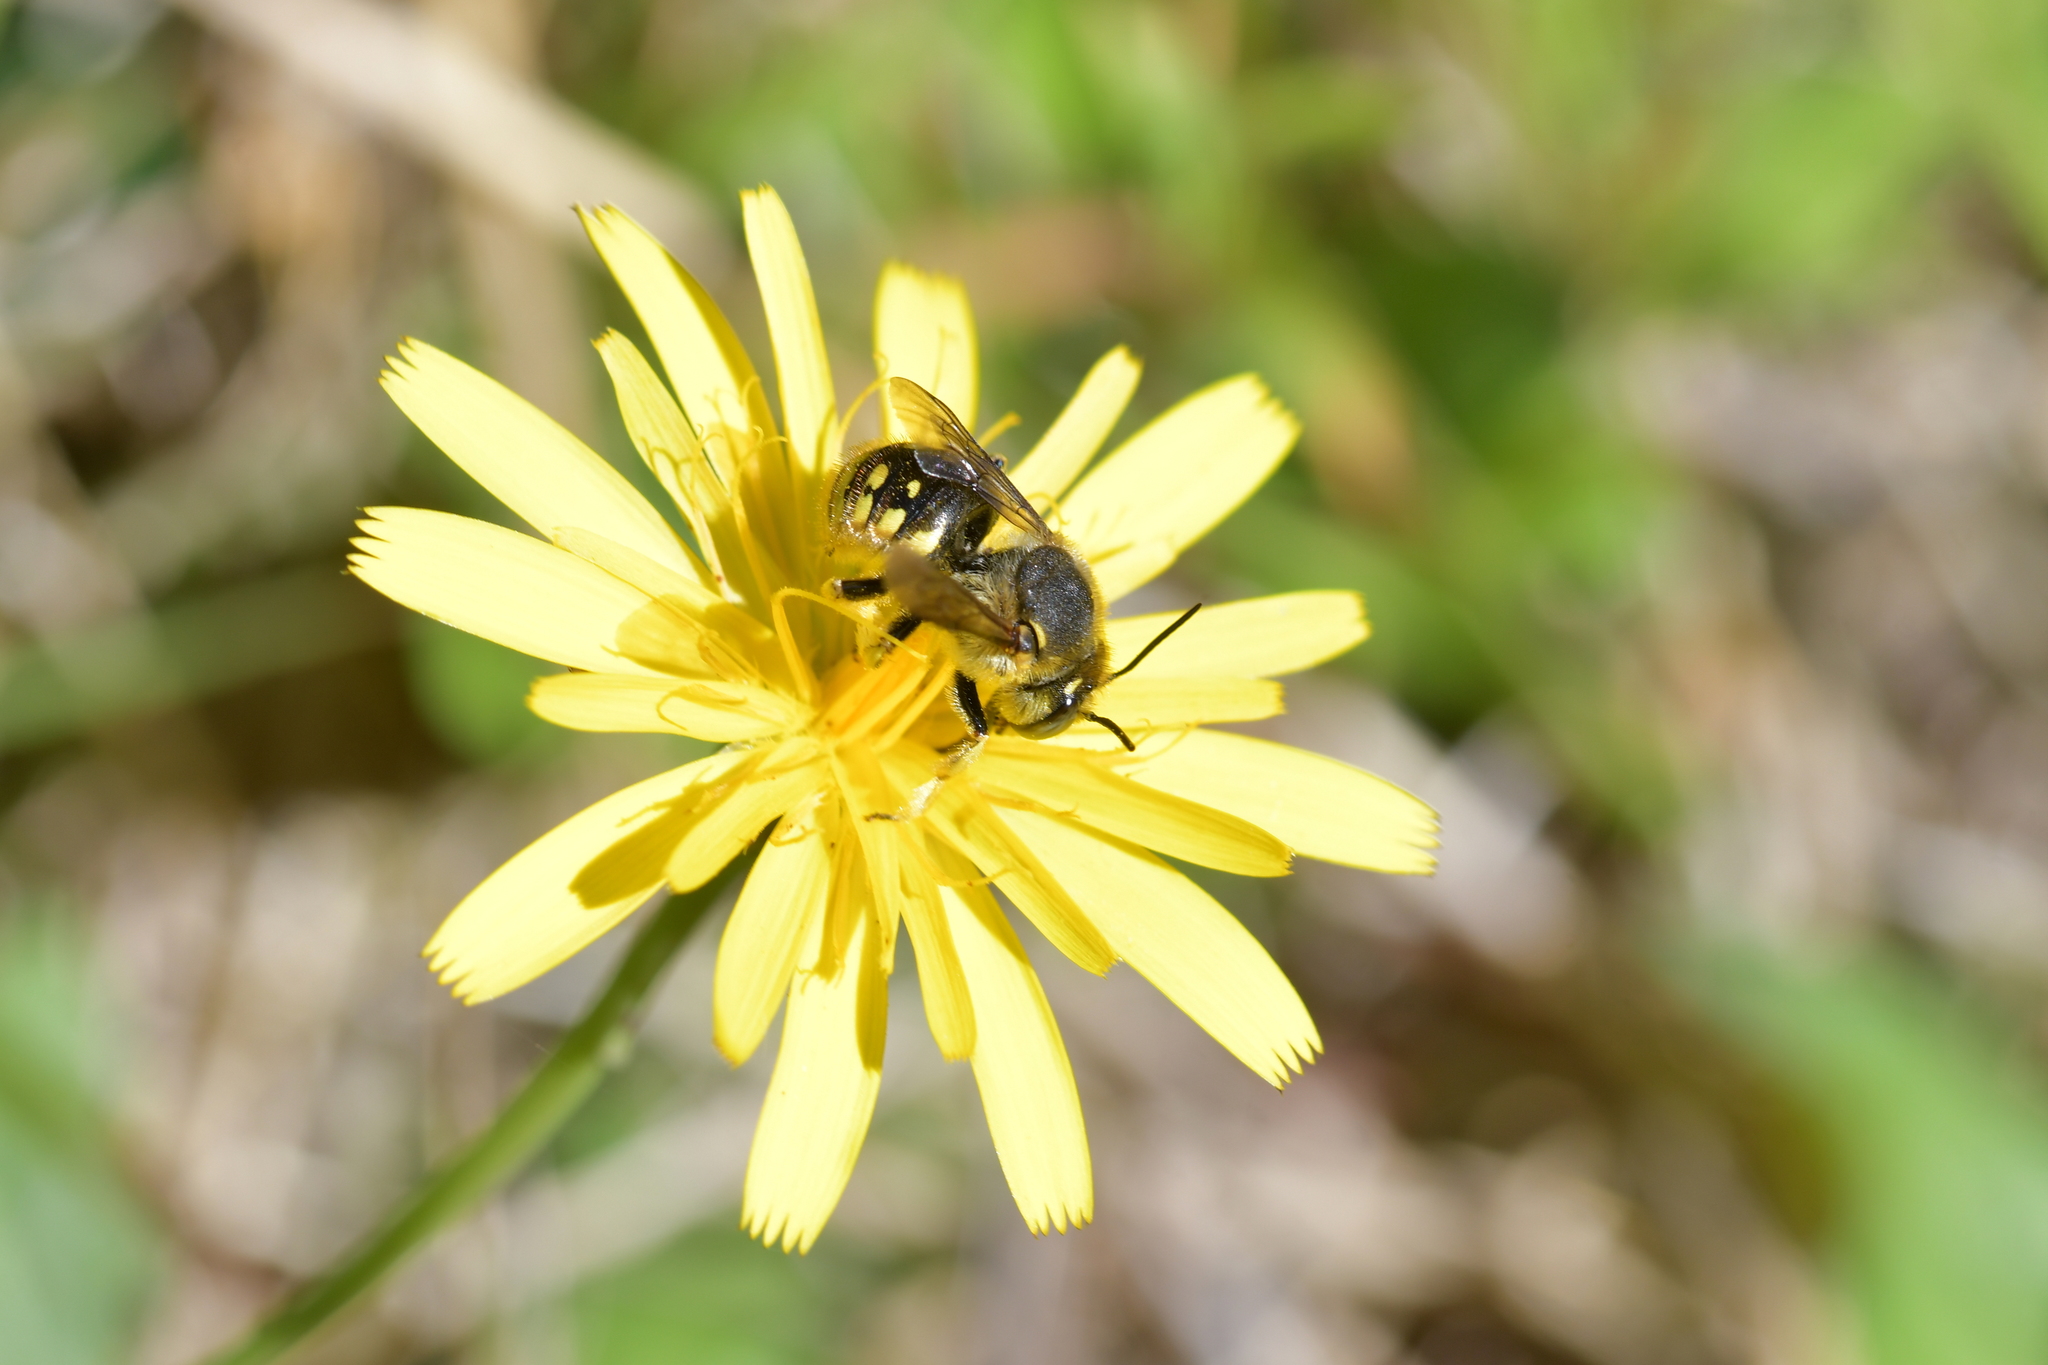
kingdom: Animalia
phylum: Arthropoda
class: Insecta
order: Hymenoptera
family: Megachilidae
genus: Anthidium
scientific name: Anthidium manicatum
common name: Wool carder bee
